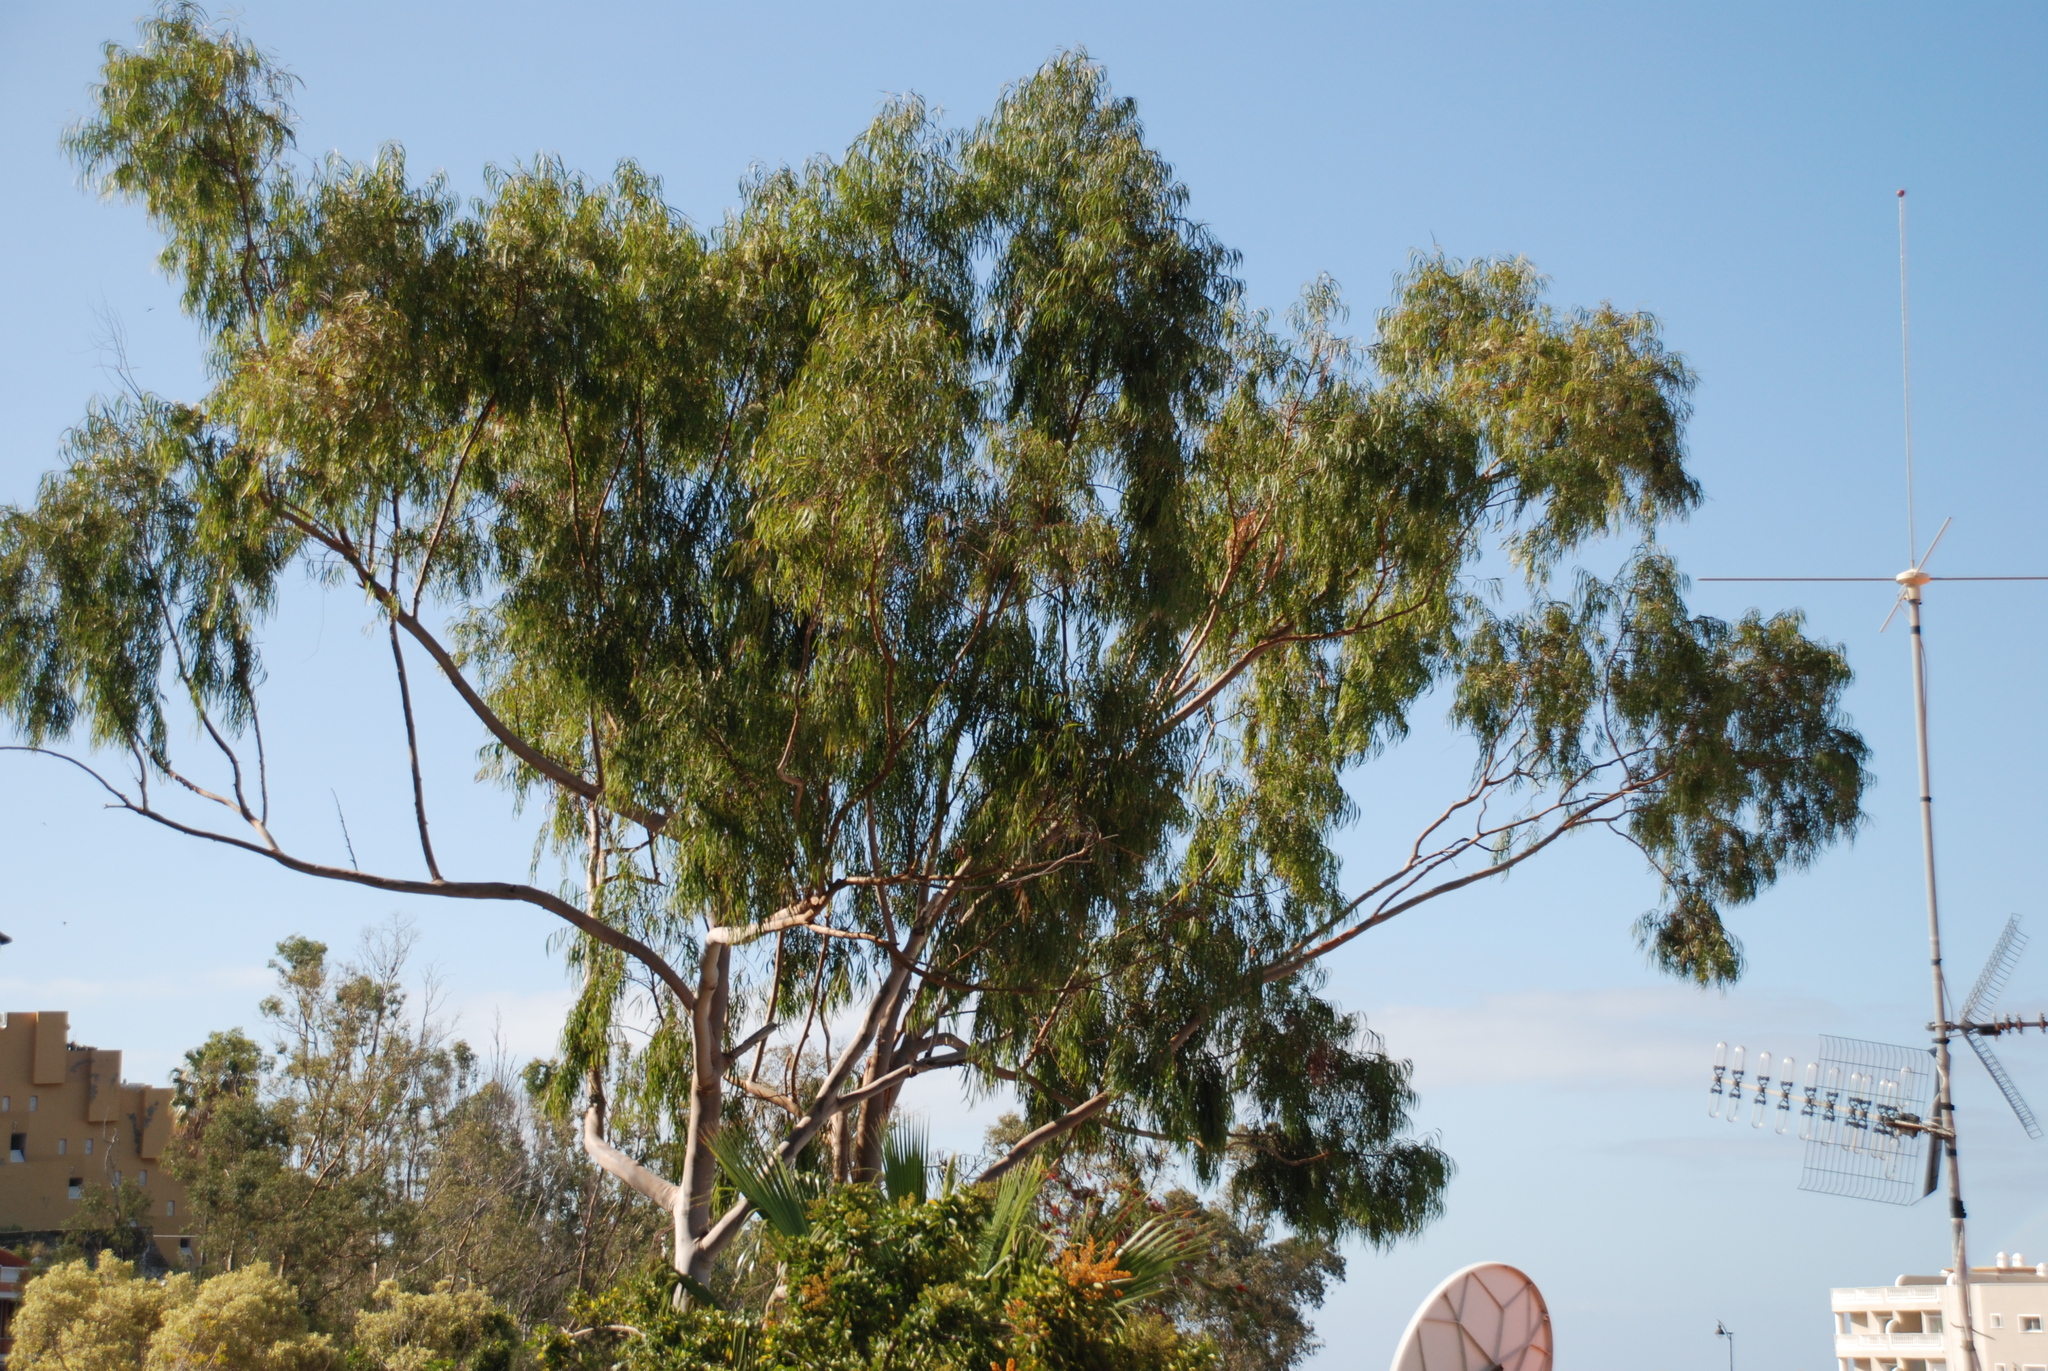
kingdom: Plantae
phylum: Tracheophyta
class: Magnoliopsida
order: Myrtales
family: Myrtaceae
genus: Eucalyptus
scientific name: Eucalyptus globulus
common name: Southern blue-gum
